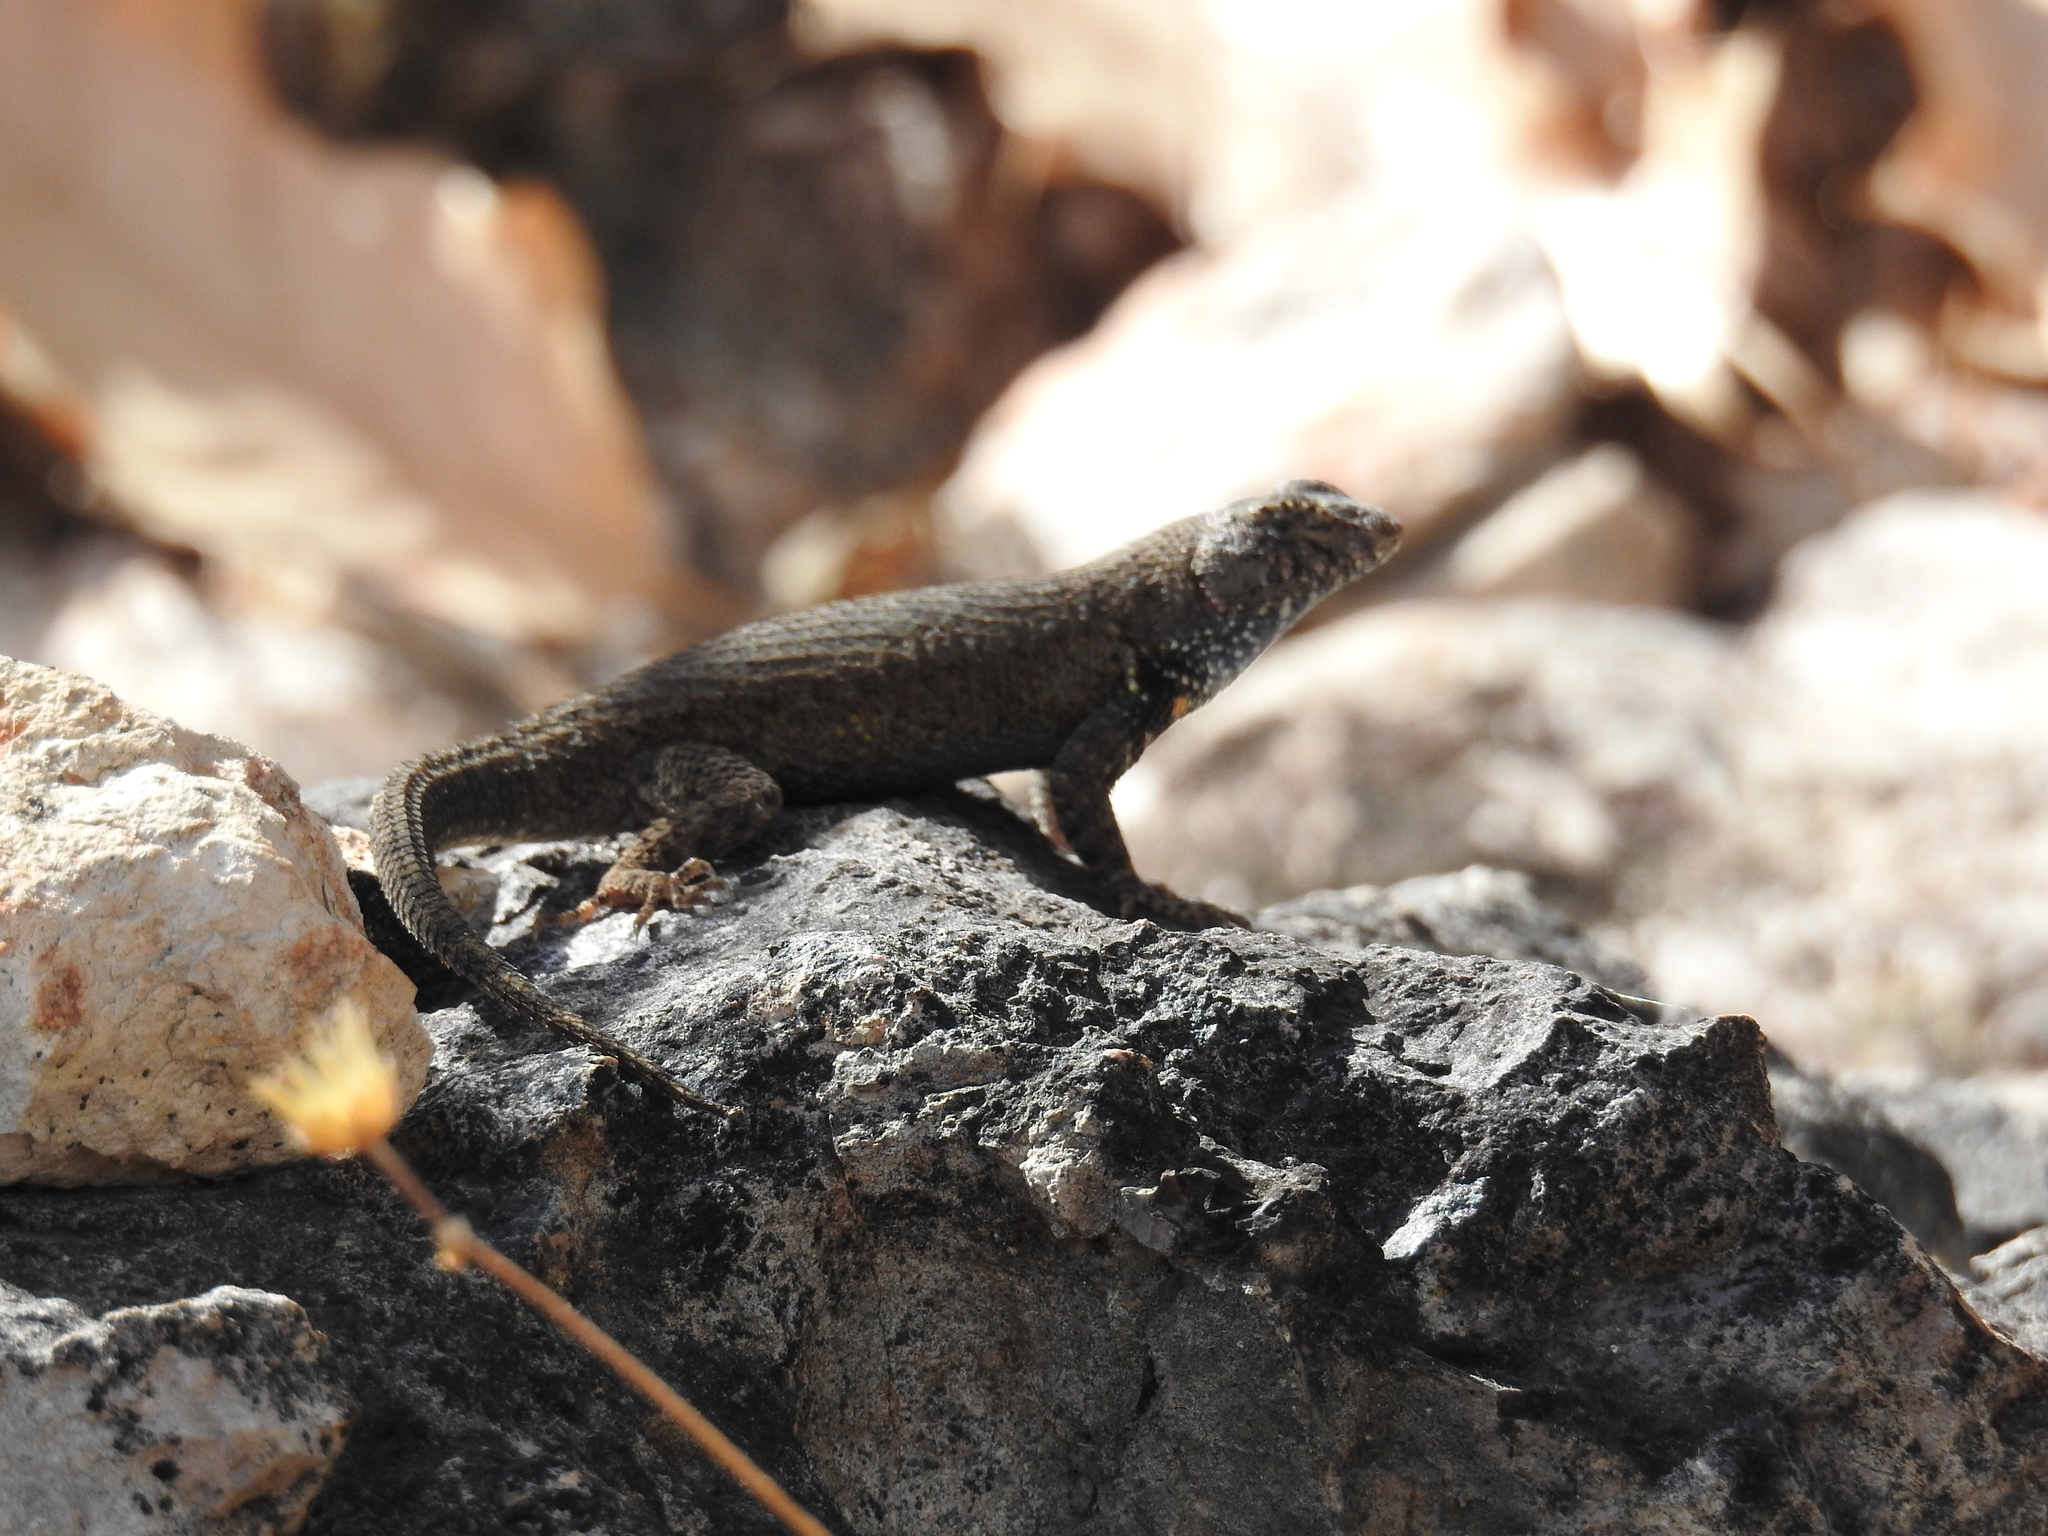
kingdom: Animalia
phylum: Chordata
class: Squamata
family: Phrynosomatidae
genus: Sceloporus
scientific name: Sceloporus nelsoni
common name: Nelson's spiny lizard
